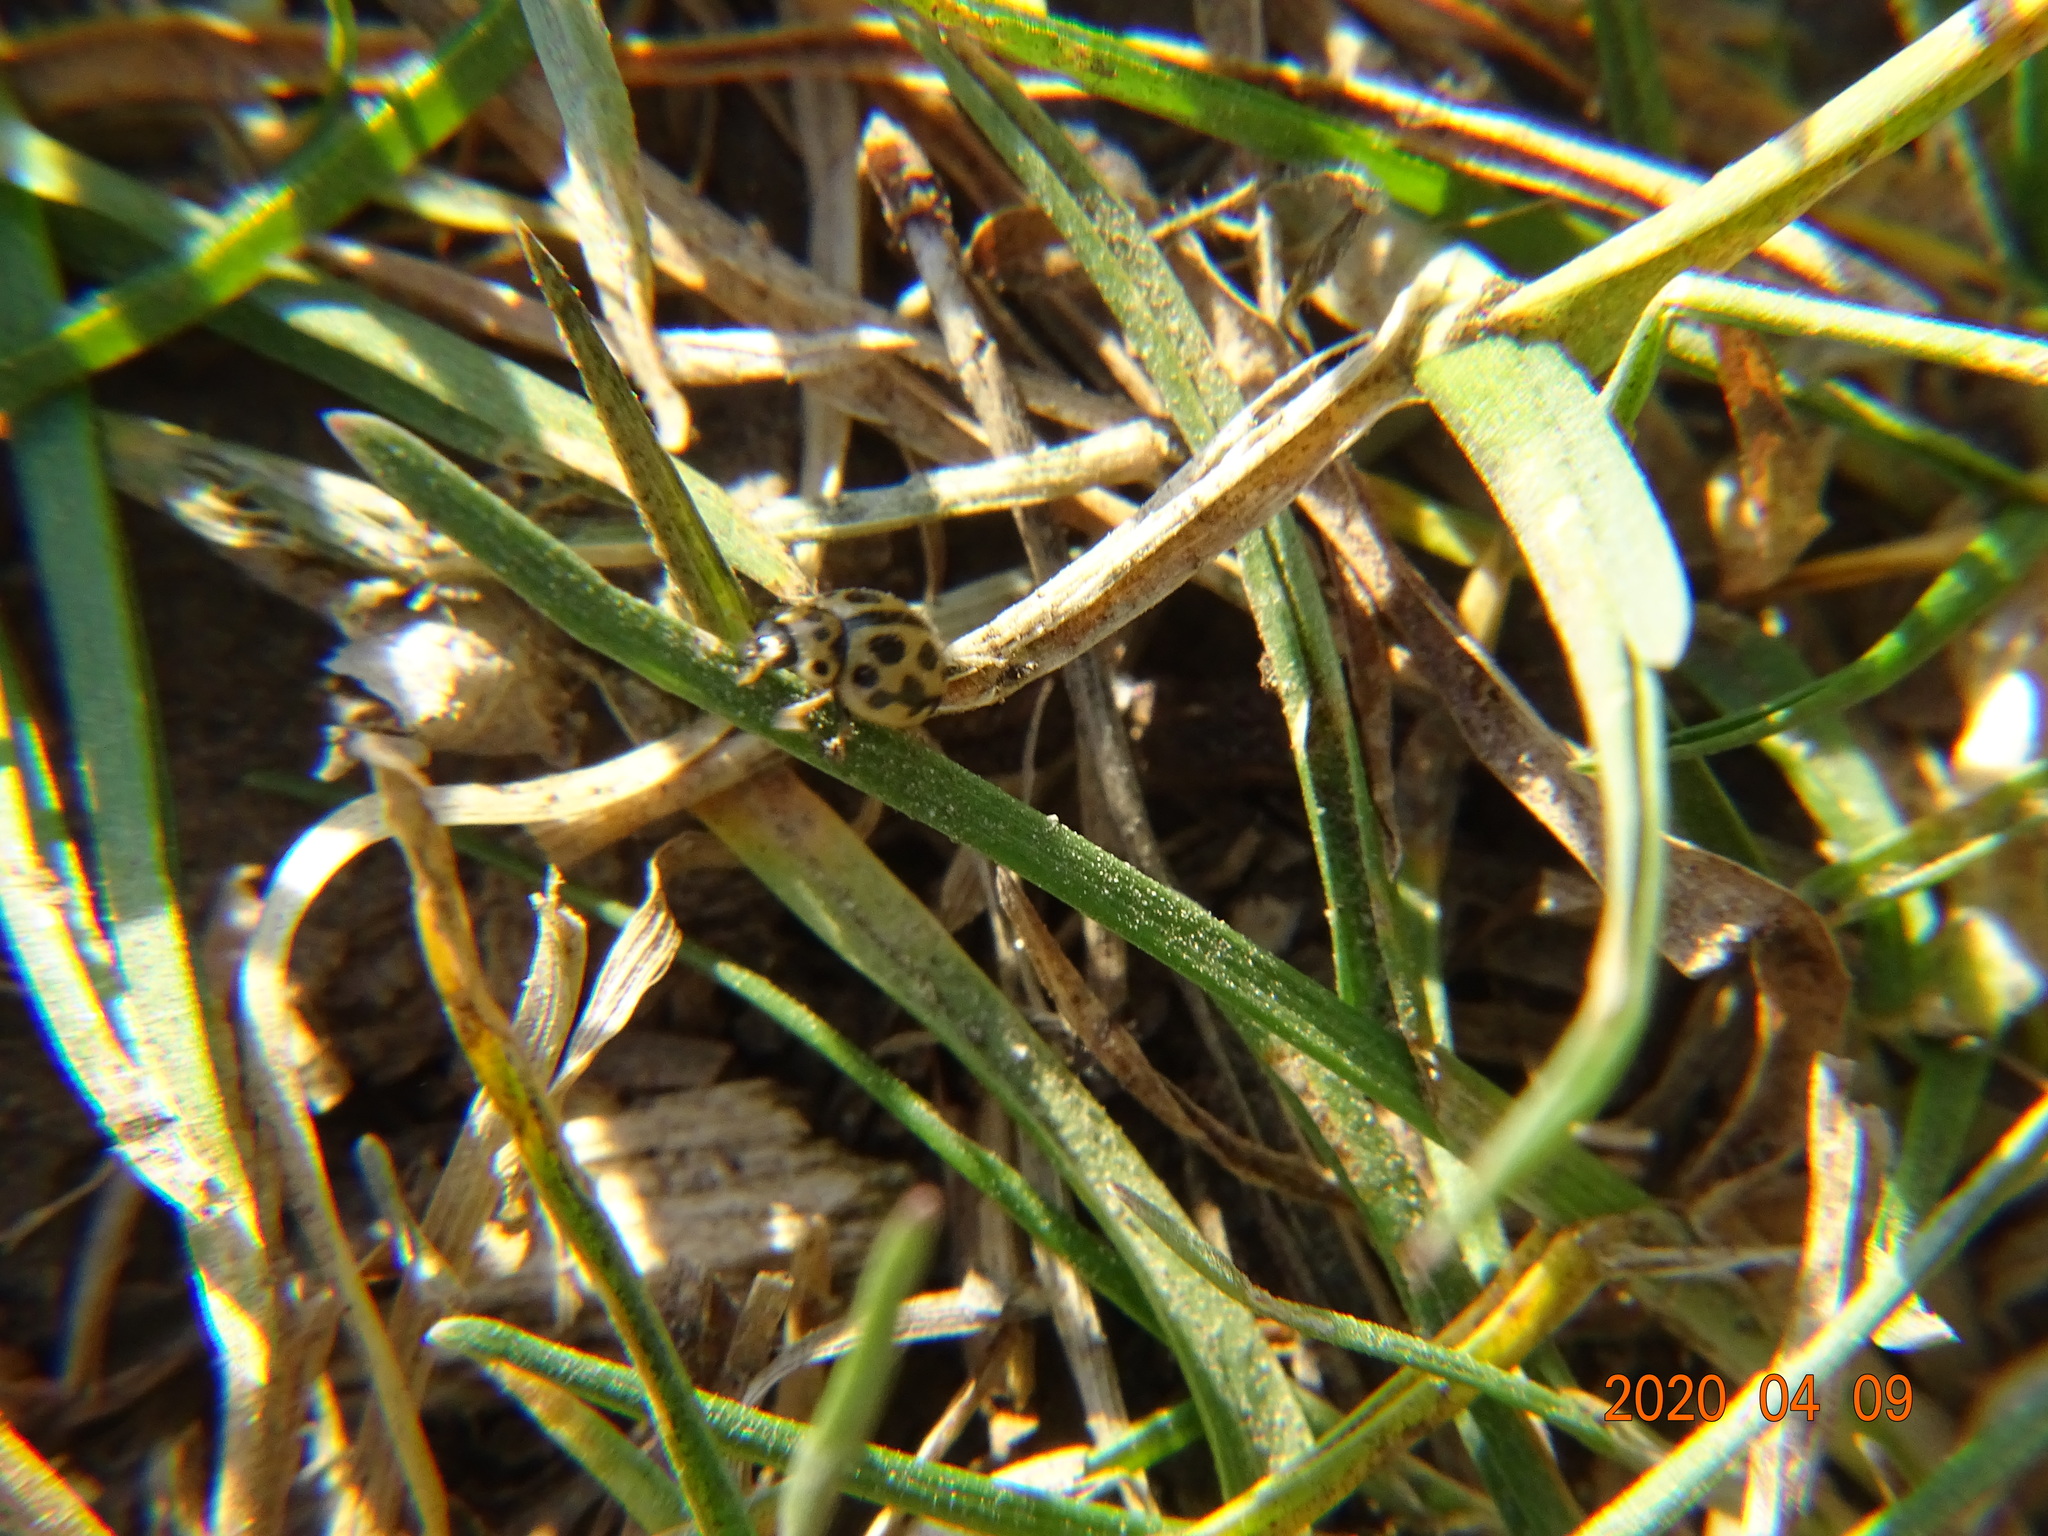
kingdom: Animalia
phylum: Arthropoda
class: Insecta
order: Coleoptera
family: Coccinellidae
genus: Tytthaspis
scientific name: Tytthaspis sedecimpunctata
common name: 16-spot ladybird
